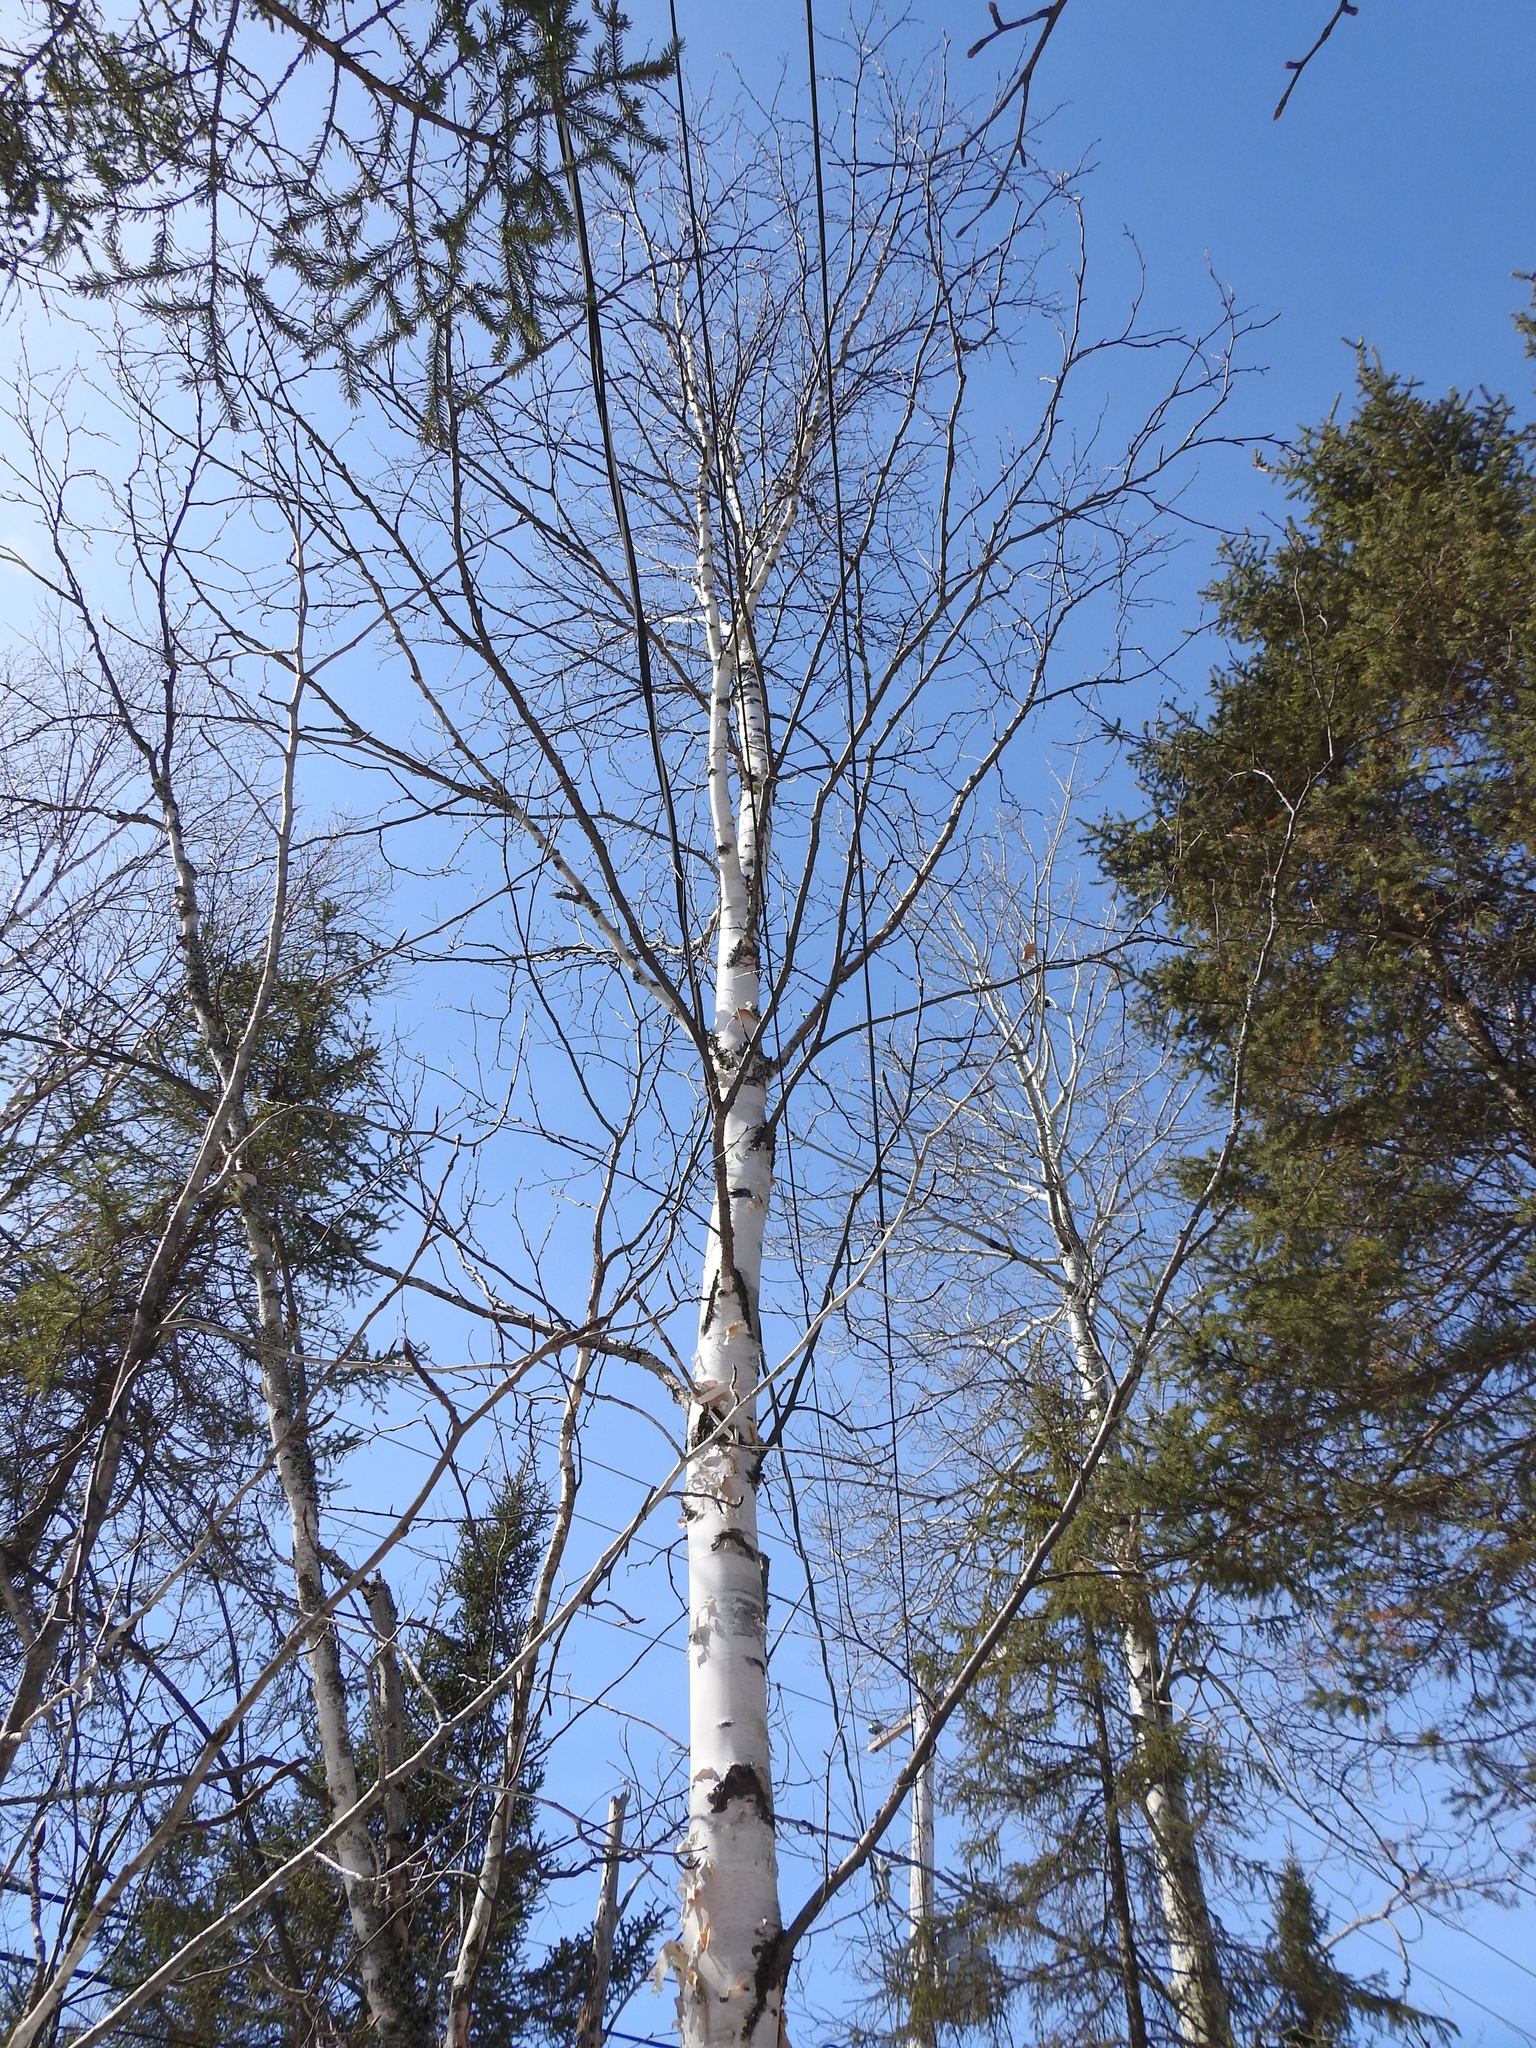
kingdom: Plantae
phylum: Tracheophyta
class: Magnoliopsida
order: Fagales
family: Betulaceae
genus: Betula
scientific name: Betula papyrifera
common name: Paper birch
